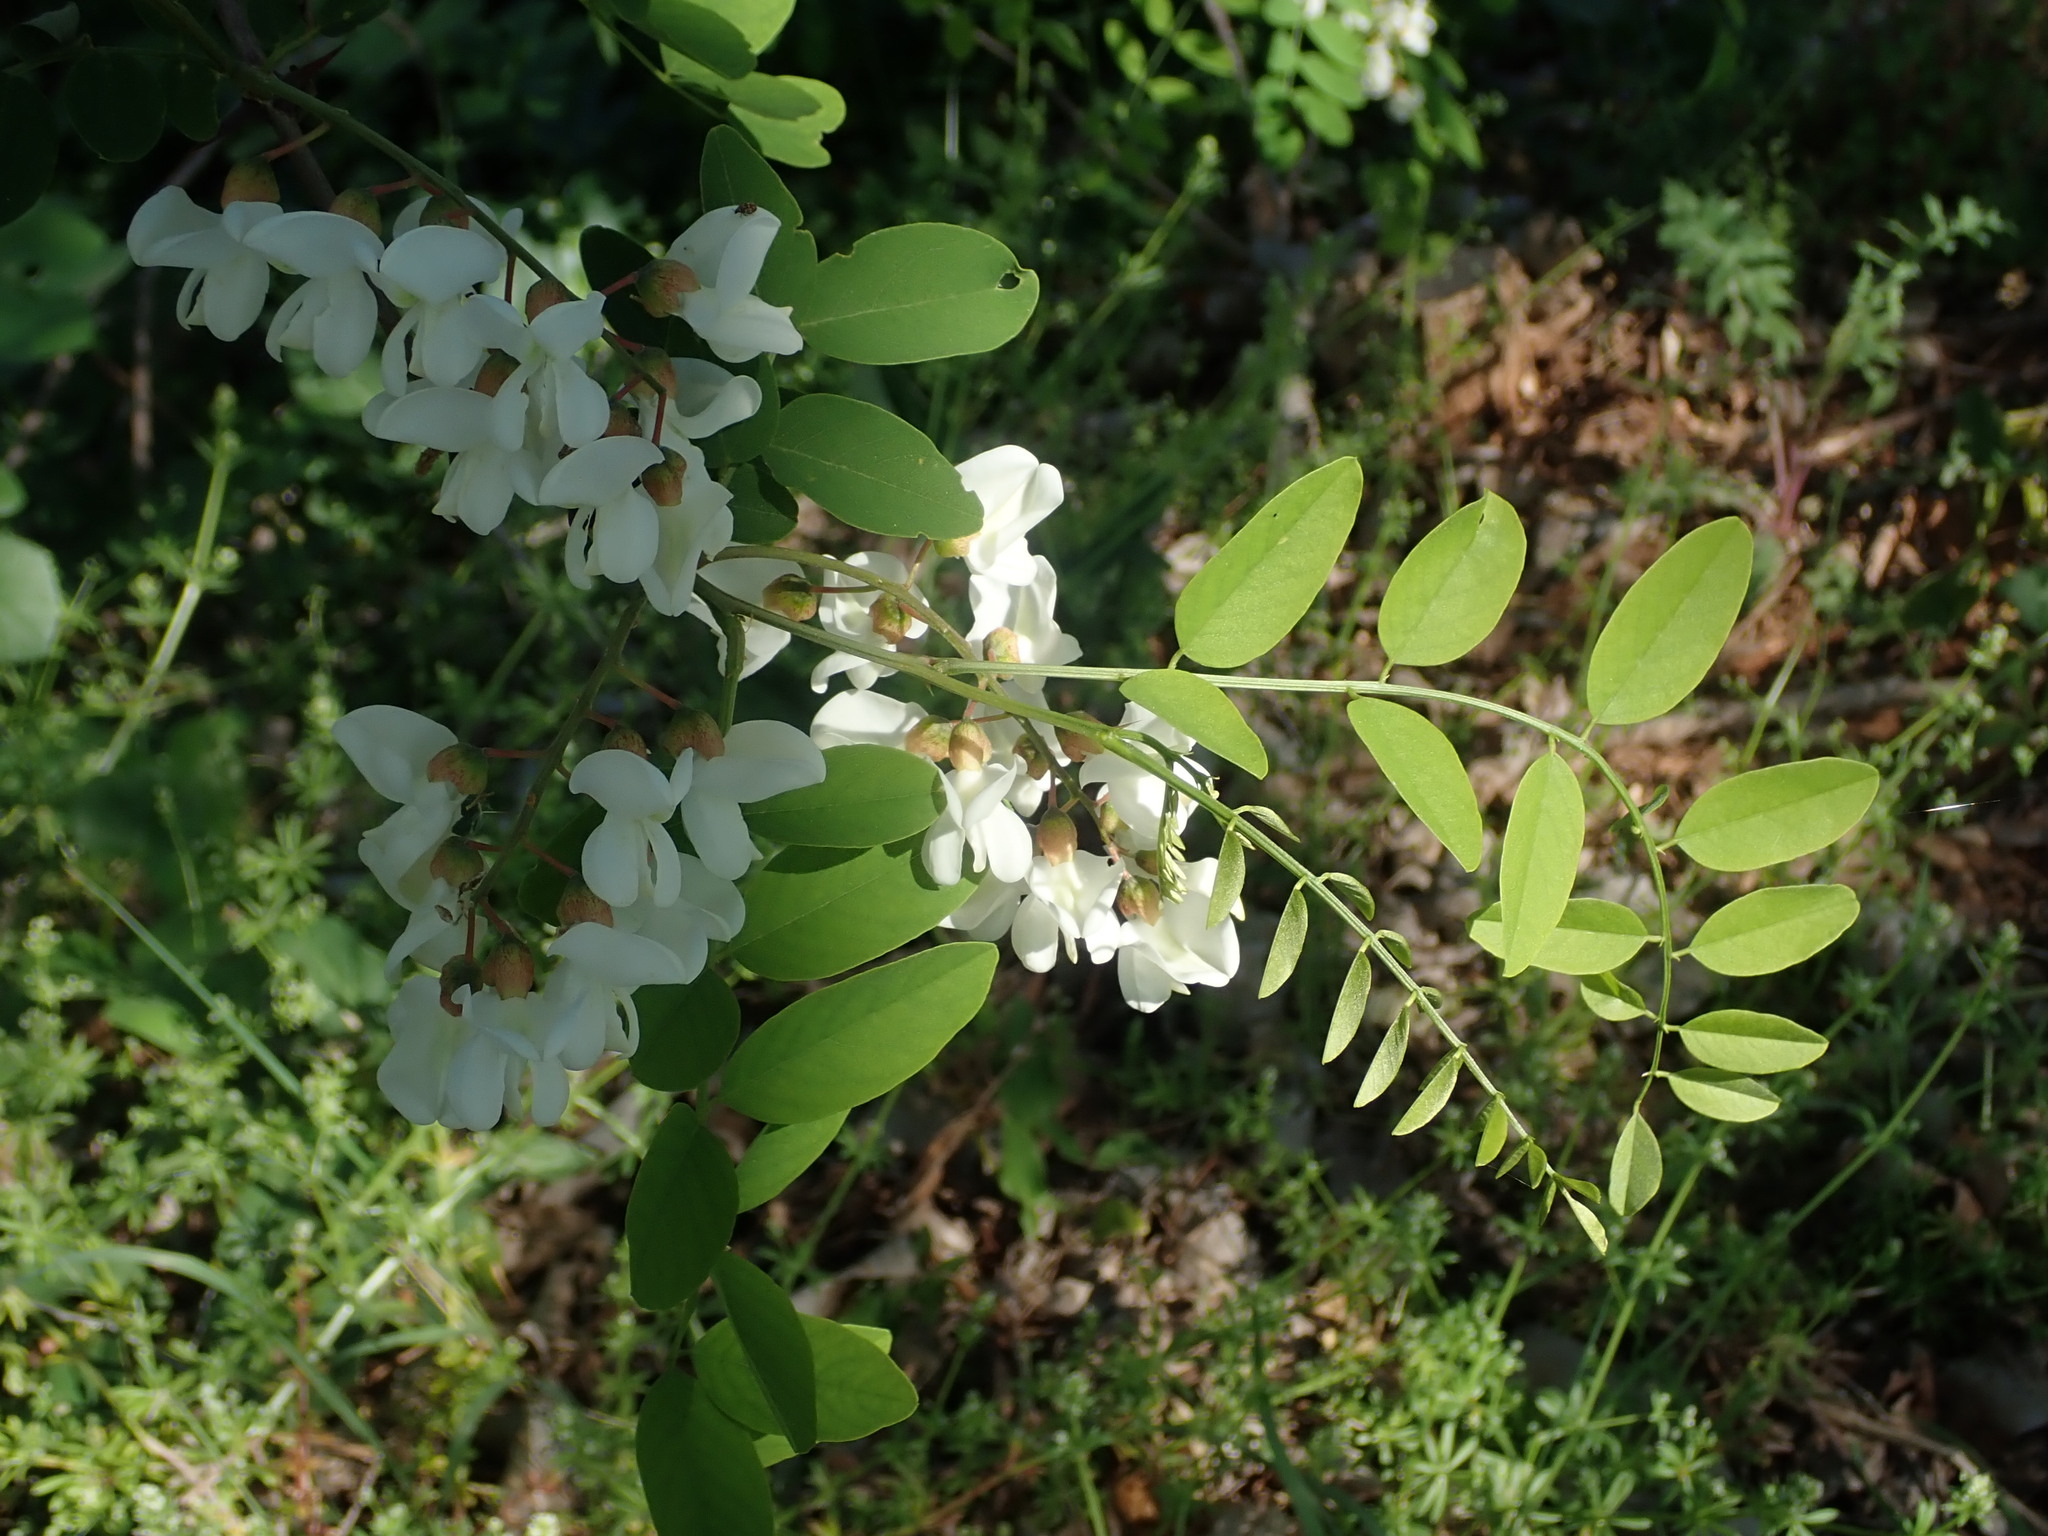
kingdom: Plantae
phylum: Tracheophyta
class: Magnoliopsida
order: Fabales
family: Fabaceae
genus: Robinia
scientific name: Robinia pseudoacacia
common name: Black locust
